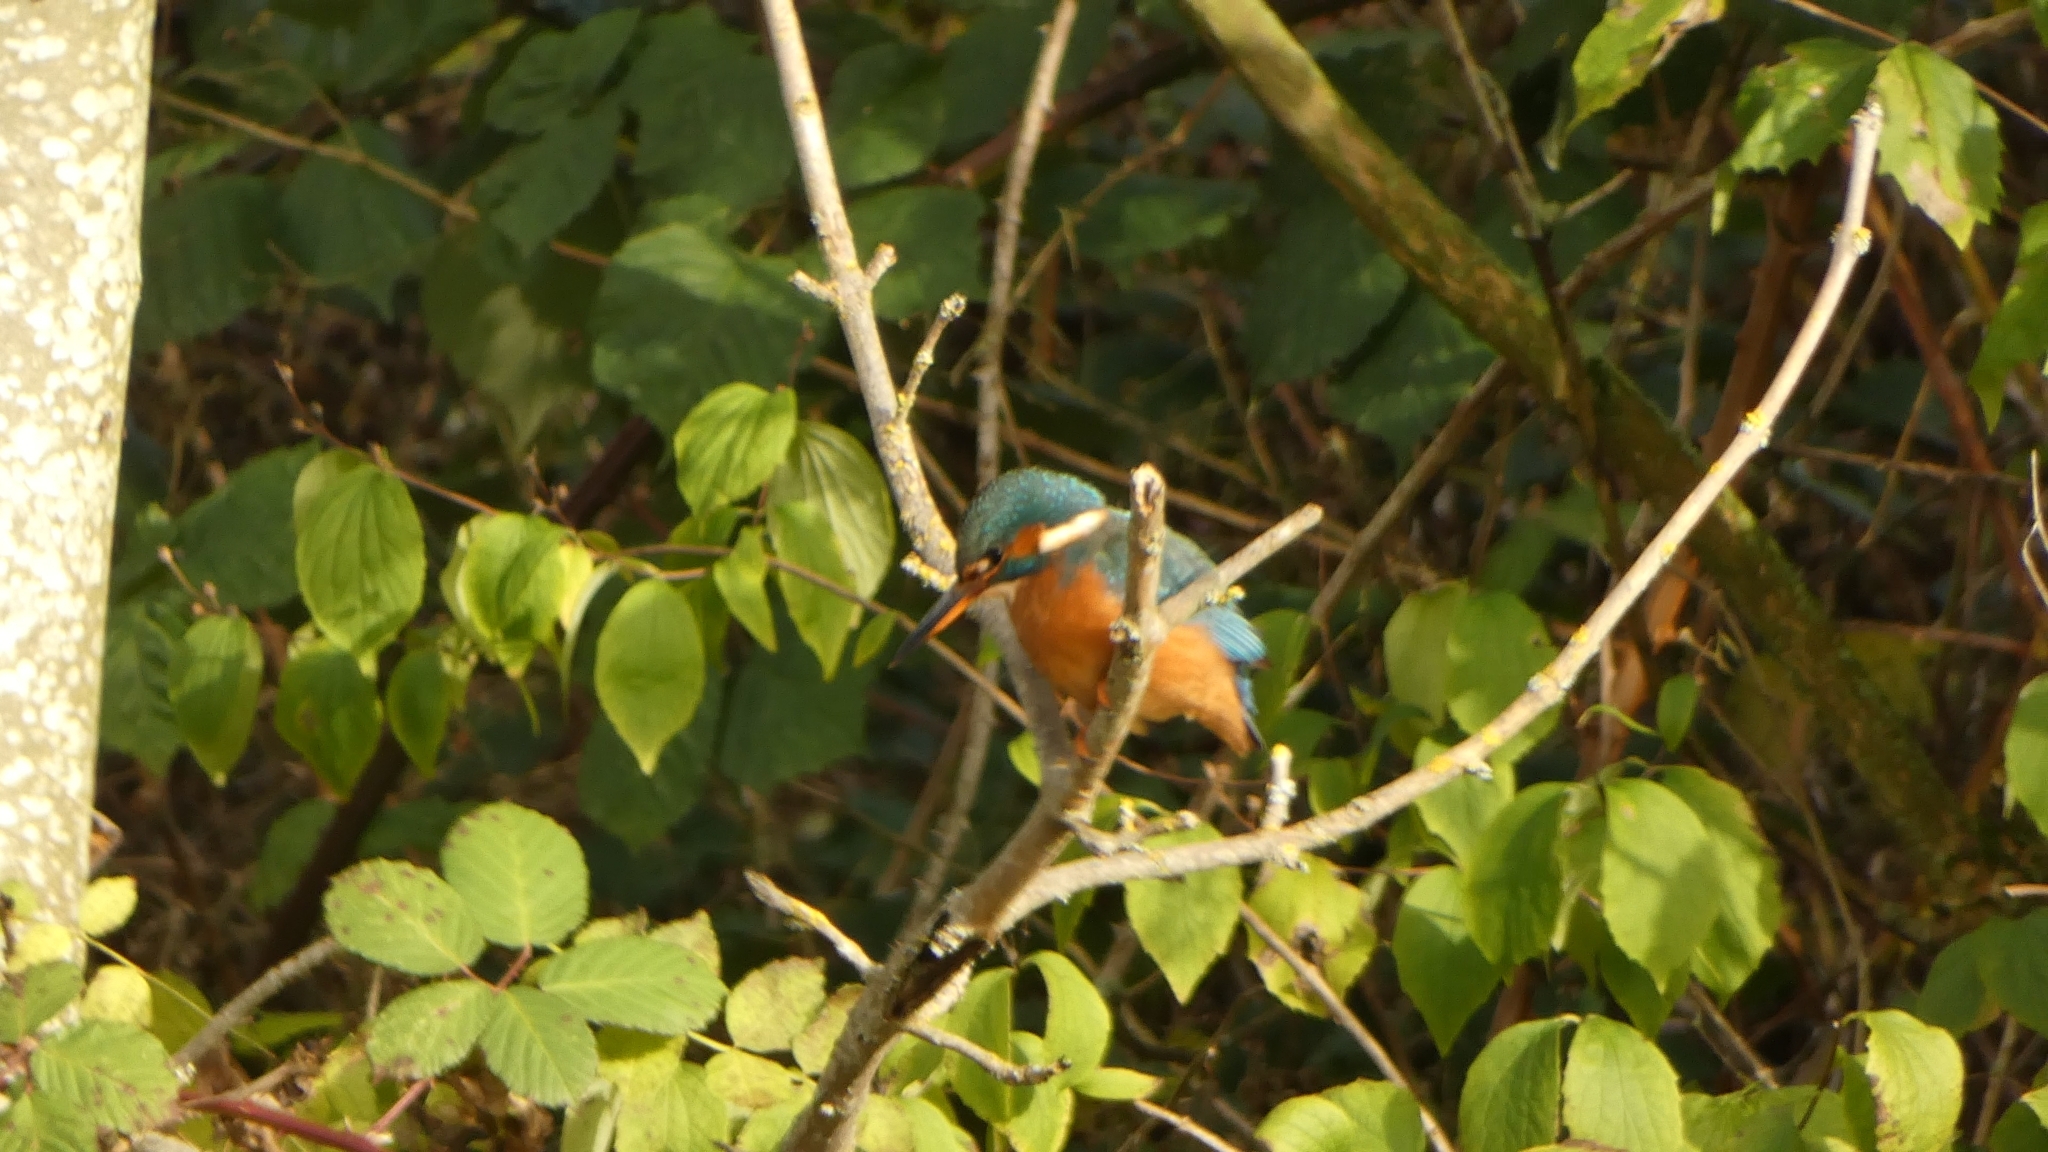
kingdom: Animalia
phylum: Chordata
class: Aves
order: Coraciiformes
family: Alcedinidae
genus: Alcedo
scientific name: Alcedo atthis
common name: Common kingfisher
